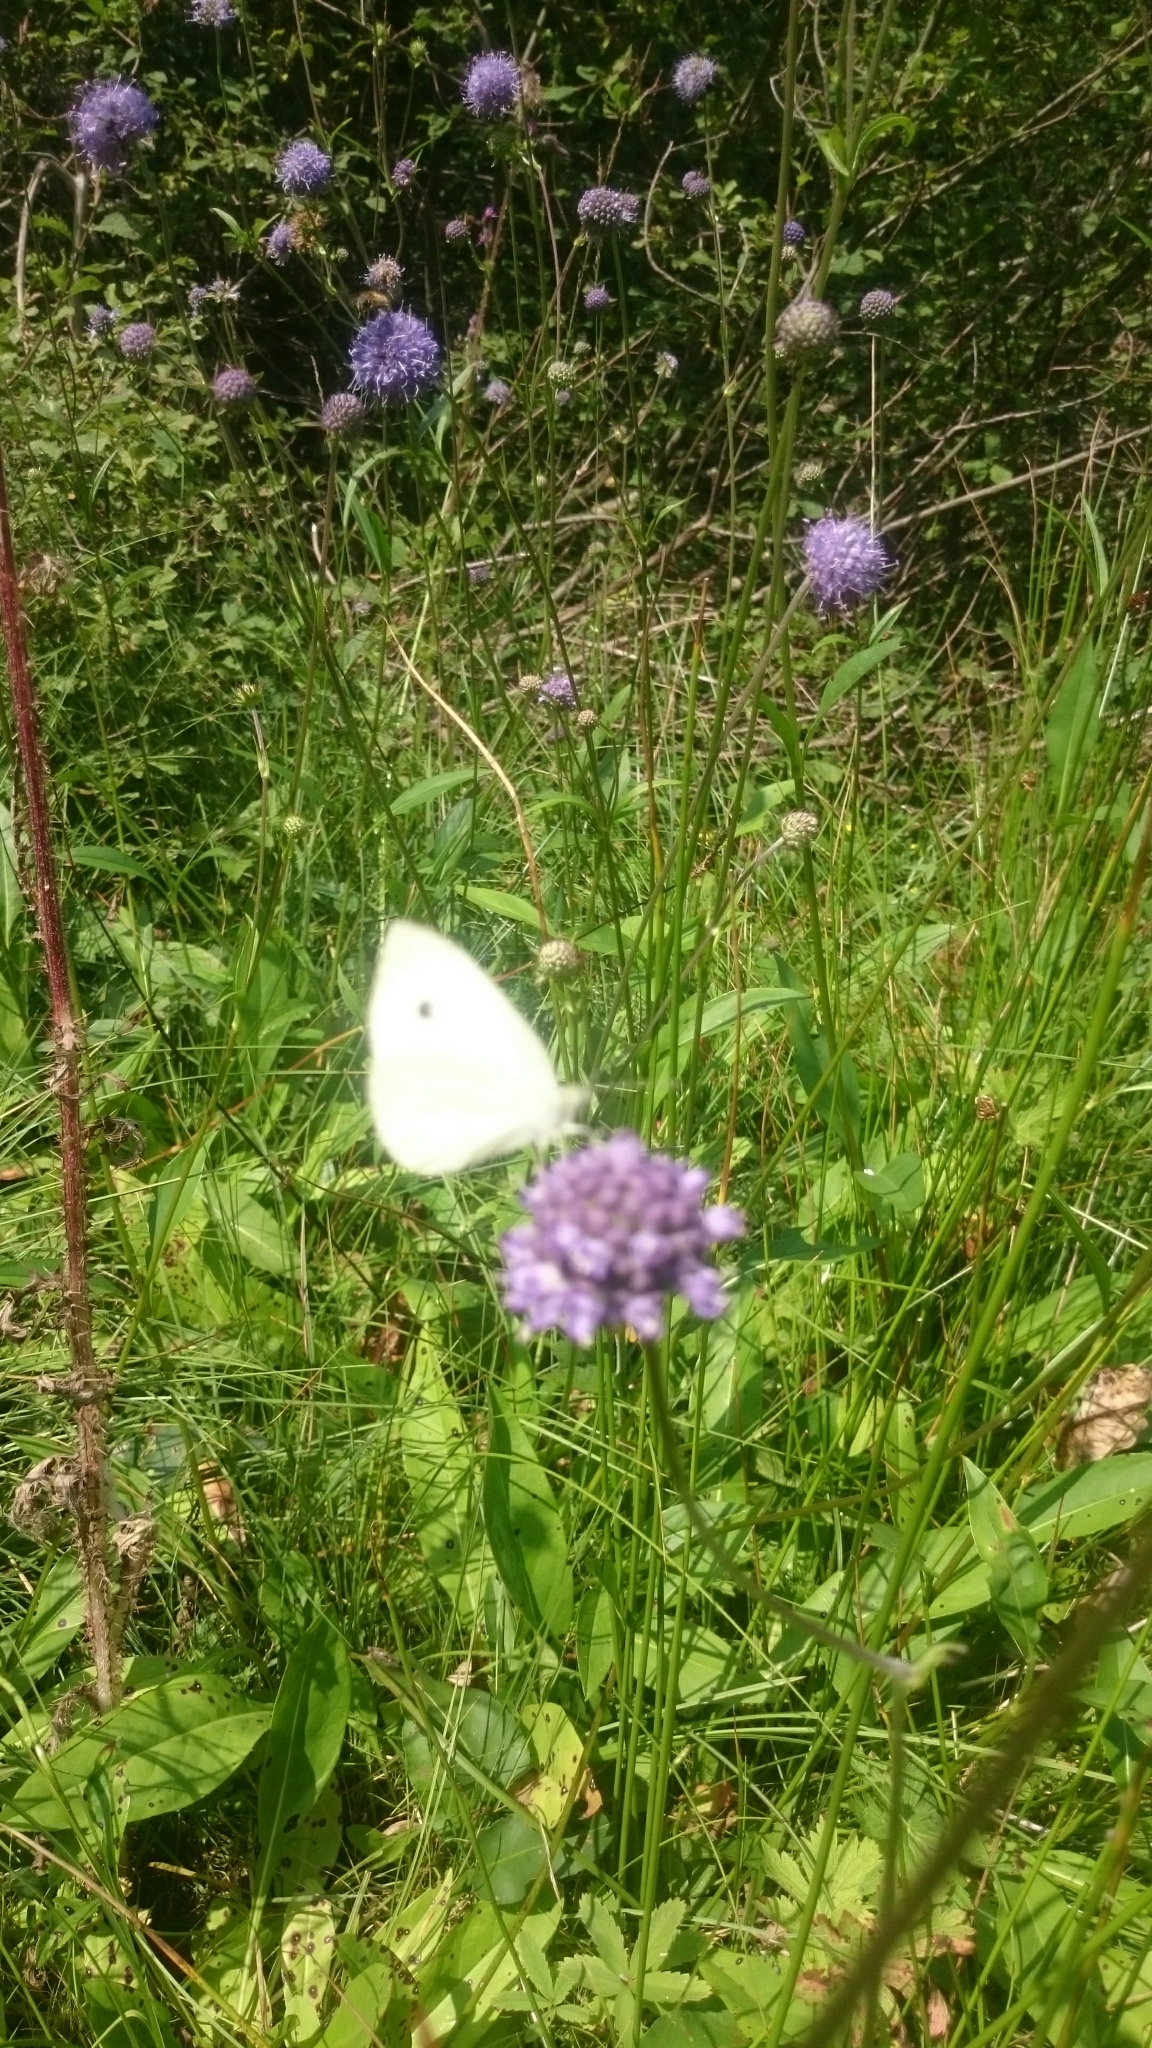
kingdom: Animalia
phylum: Arthropoda
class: Insecta
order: Lepidoptera
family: Pieridae
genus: Pieris
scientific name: Pieris rapae
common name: Small white
